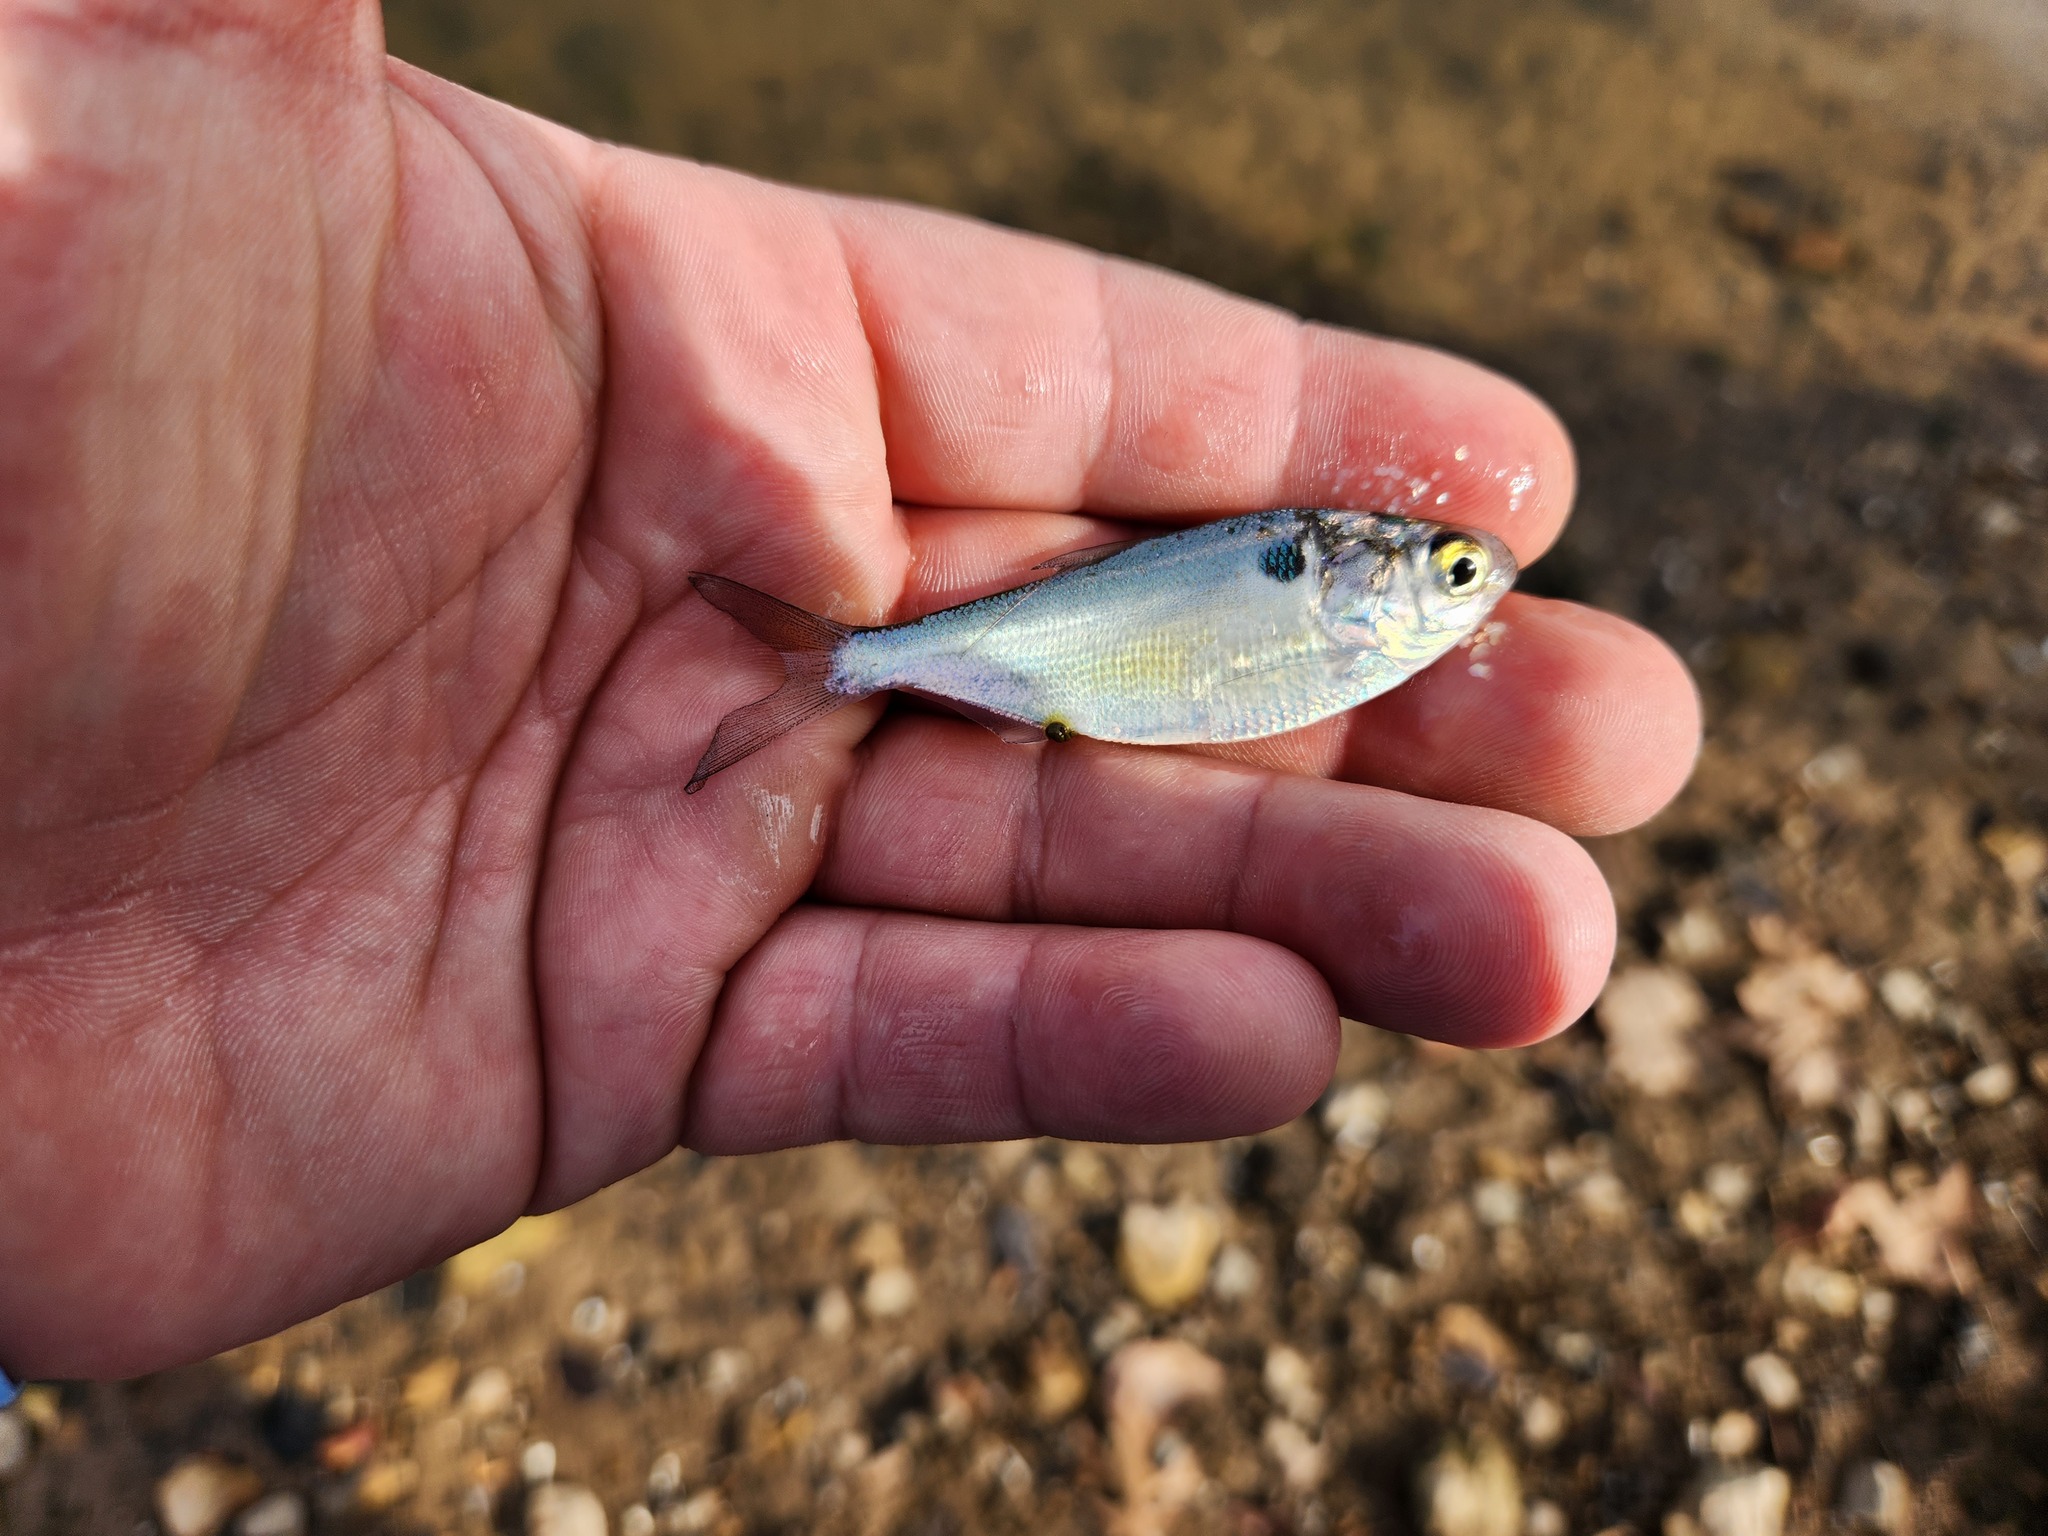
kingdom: Animalia
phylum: Chordata
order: Clupeiformes
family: Clupeidae
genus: Dorosoma
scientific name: Dorosoma cepedianum
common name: Gizzard shad
